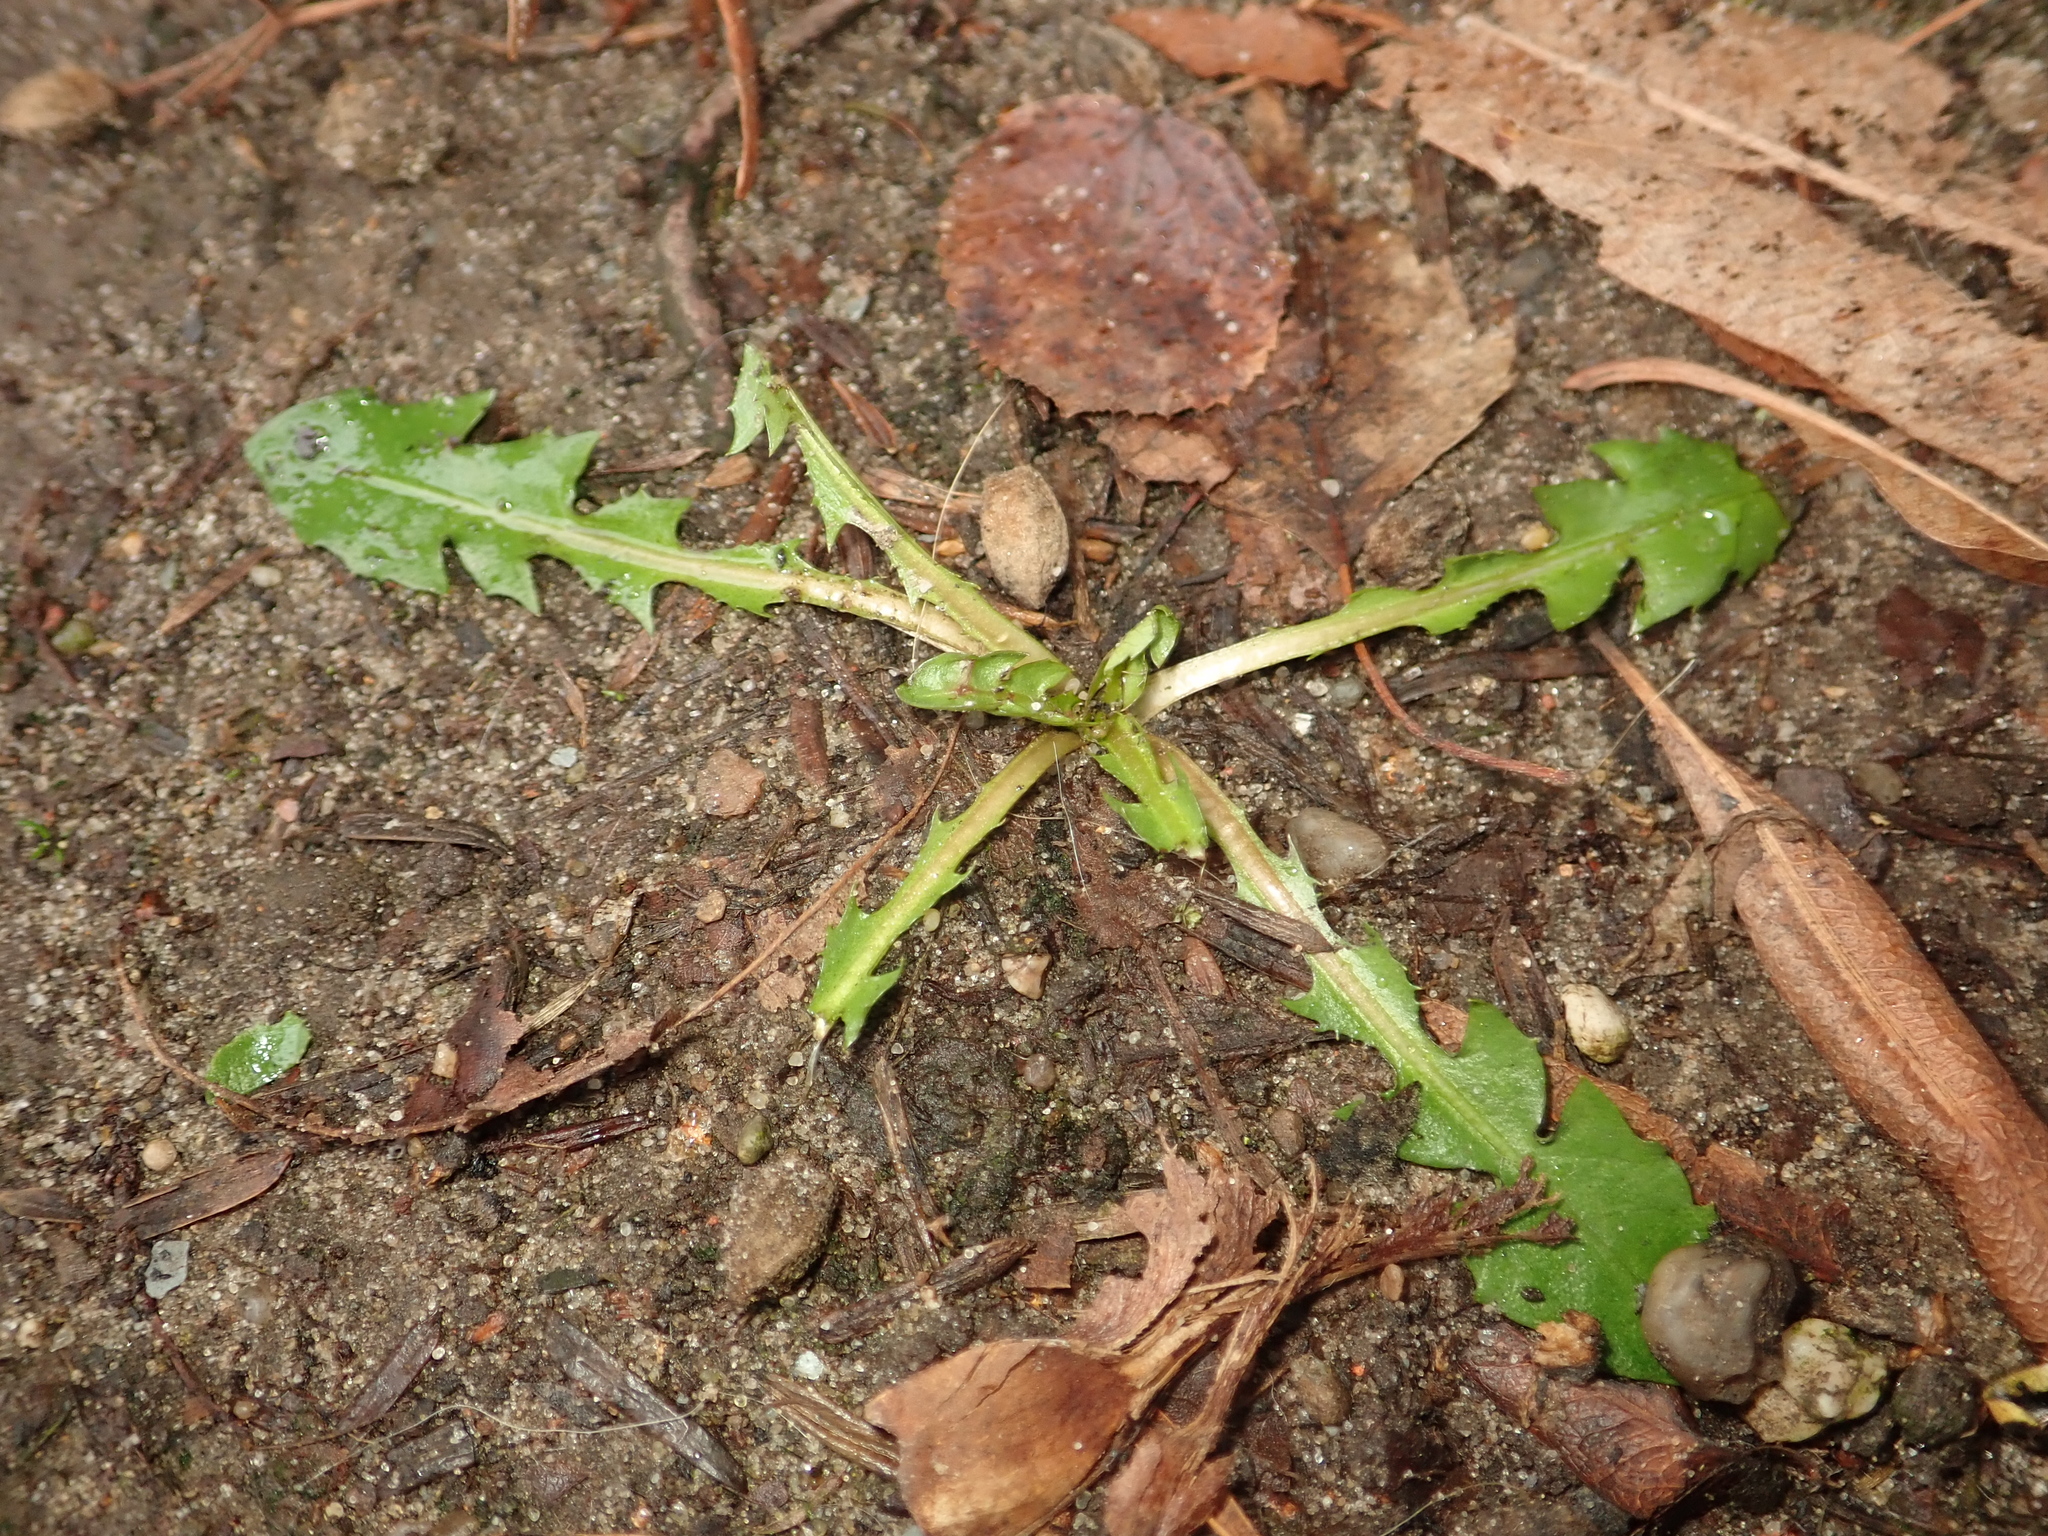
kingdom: Plantae
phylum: Tracheophyta
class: Magnoliopsida
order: Asterales
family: Asteraceae
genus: Taraxacum
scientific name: Taraxacum officinale
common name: Common dandelion
